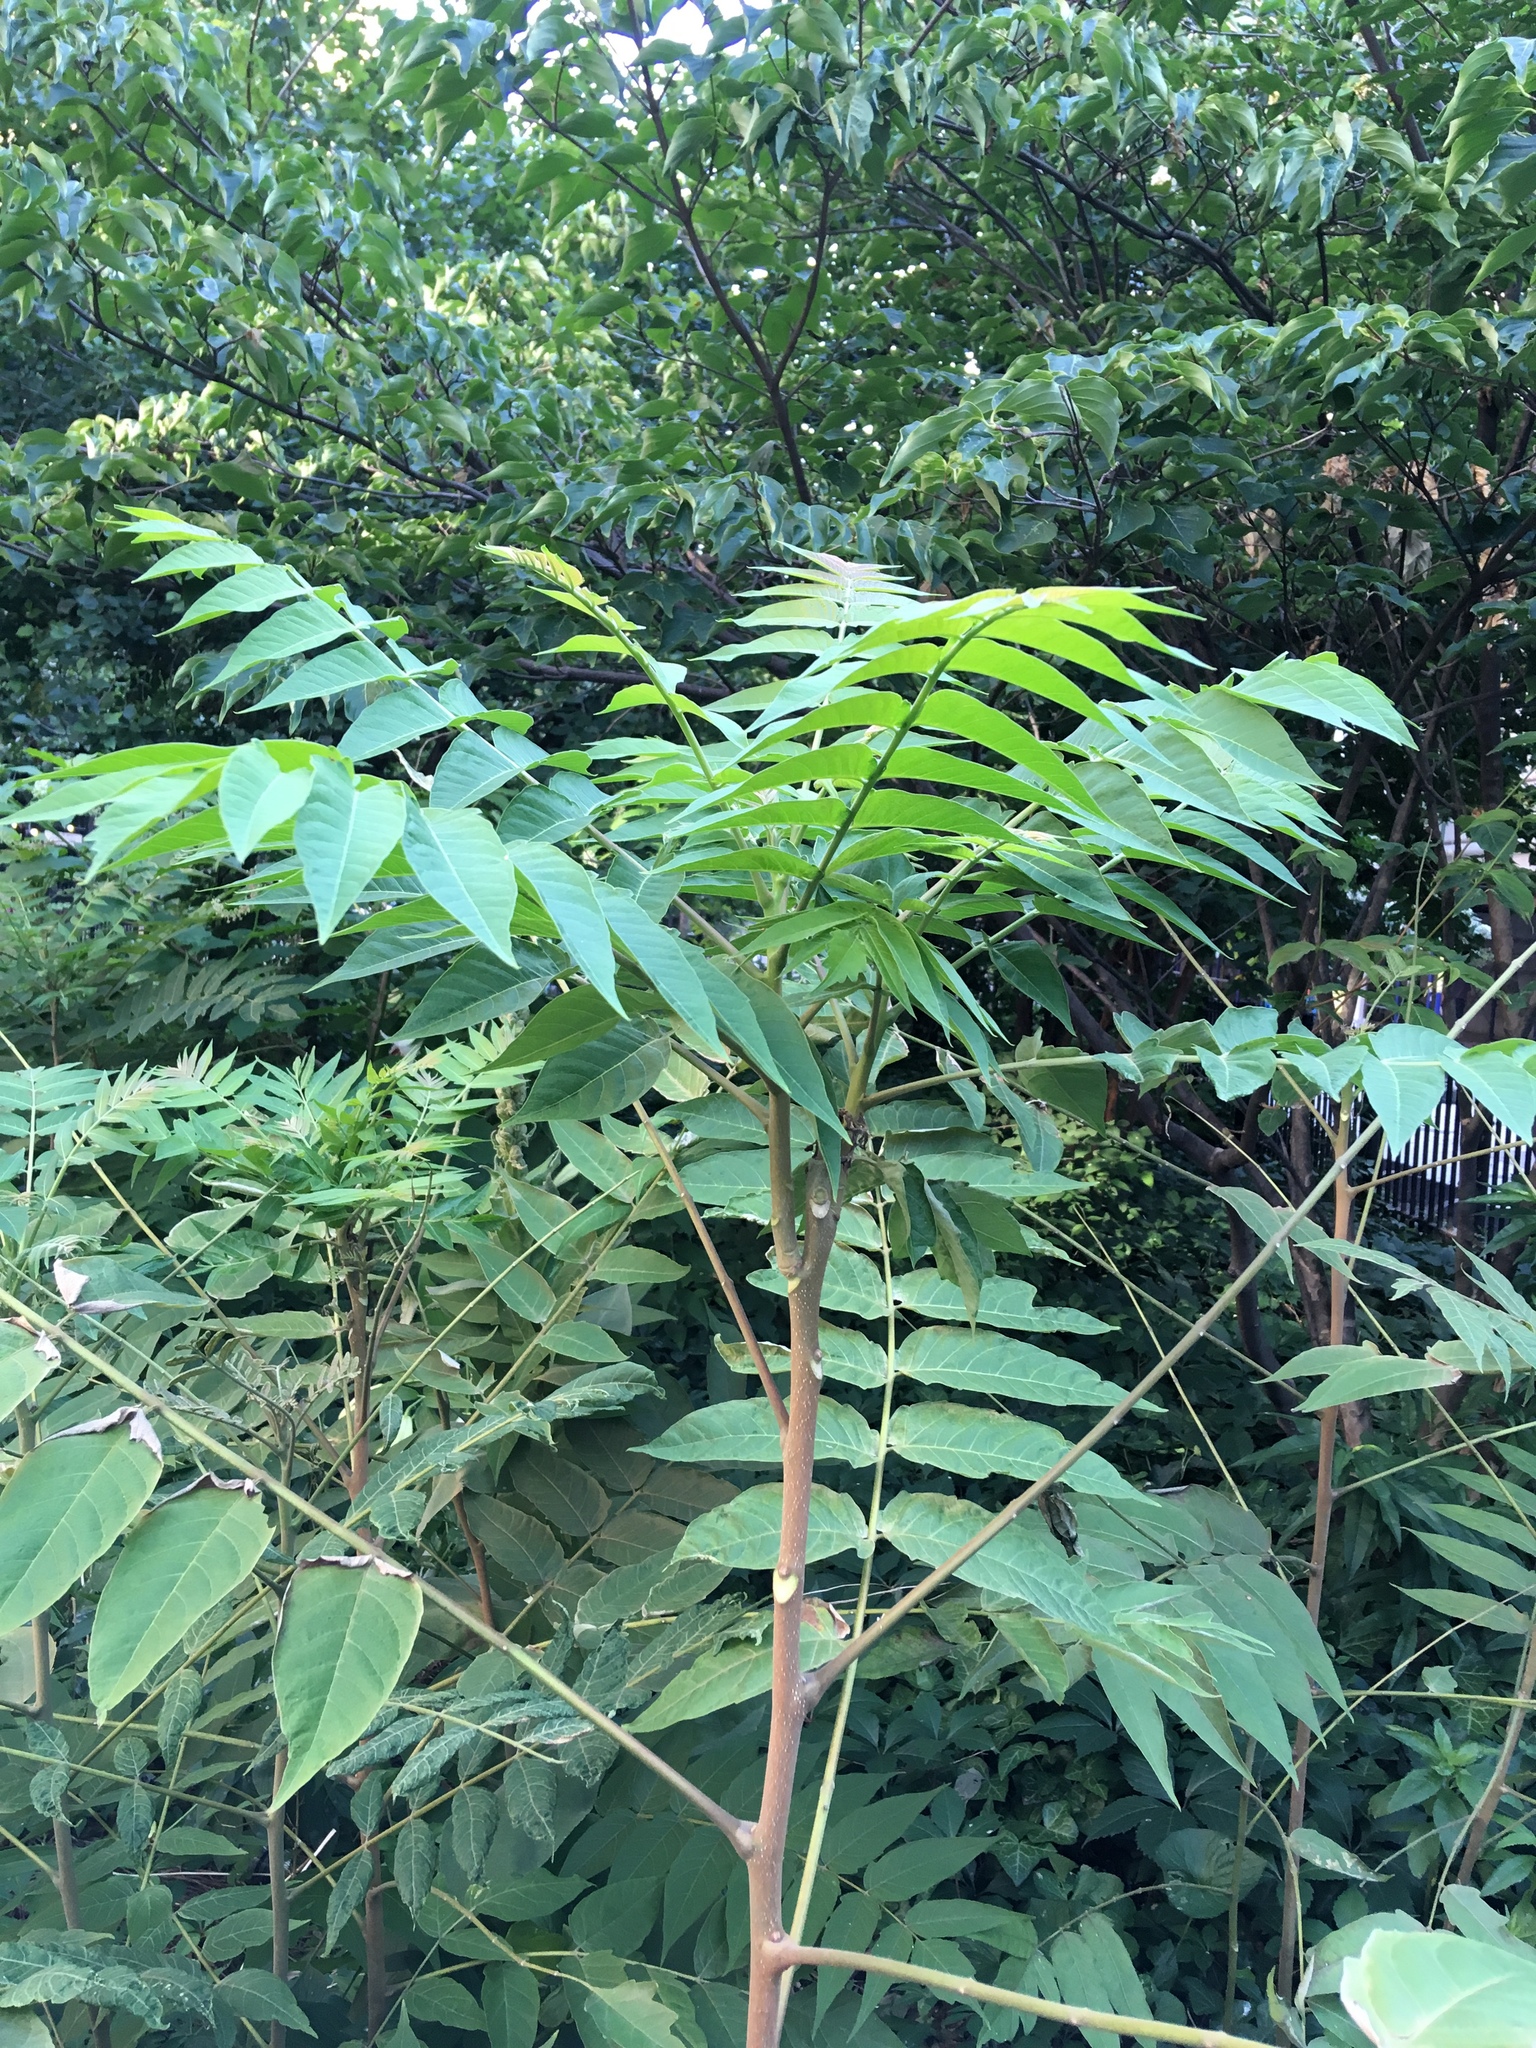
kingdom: Plantae
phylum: Tracheophyta
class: Magnoliopsida
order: Sapindales
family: Simaroubaceae
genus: Ailanthus
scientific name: Ailanthus altissima
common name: Tree-of-heaven
